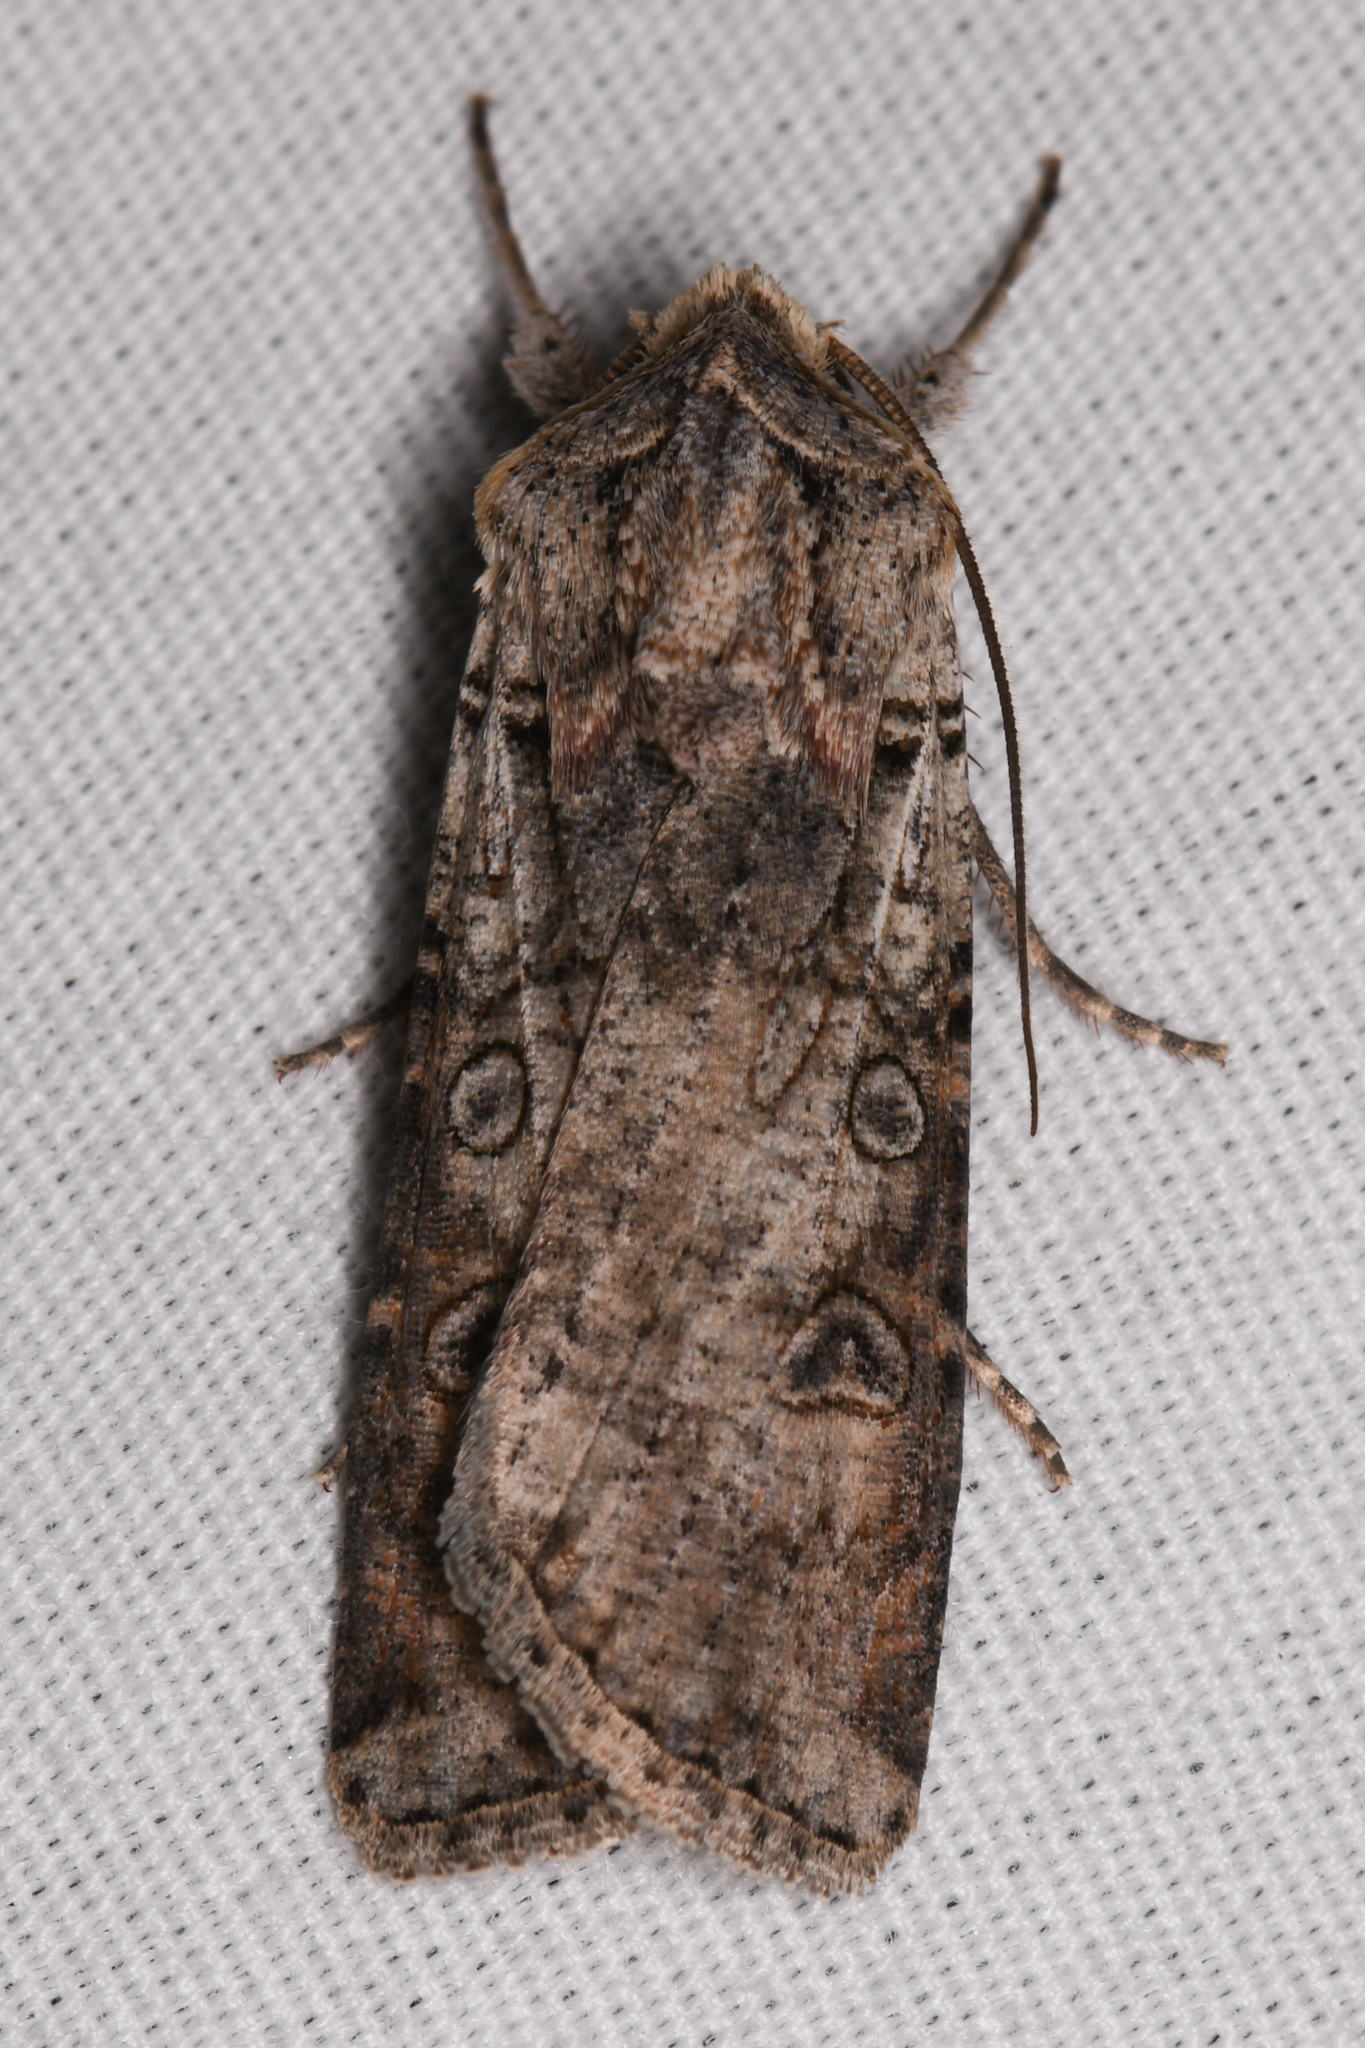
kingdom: Animalia
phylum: Arthropoda
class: Insecta
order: Lepidoptera
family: Noctuidae
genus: Hemieuxoa
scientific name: Hemieuxoa rudens
